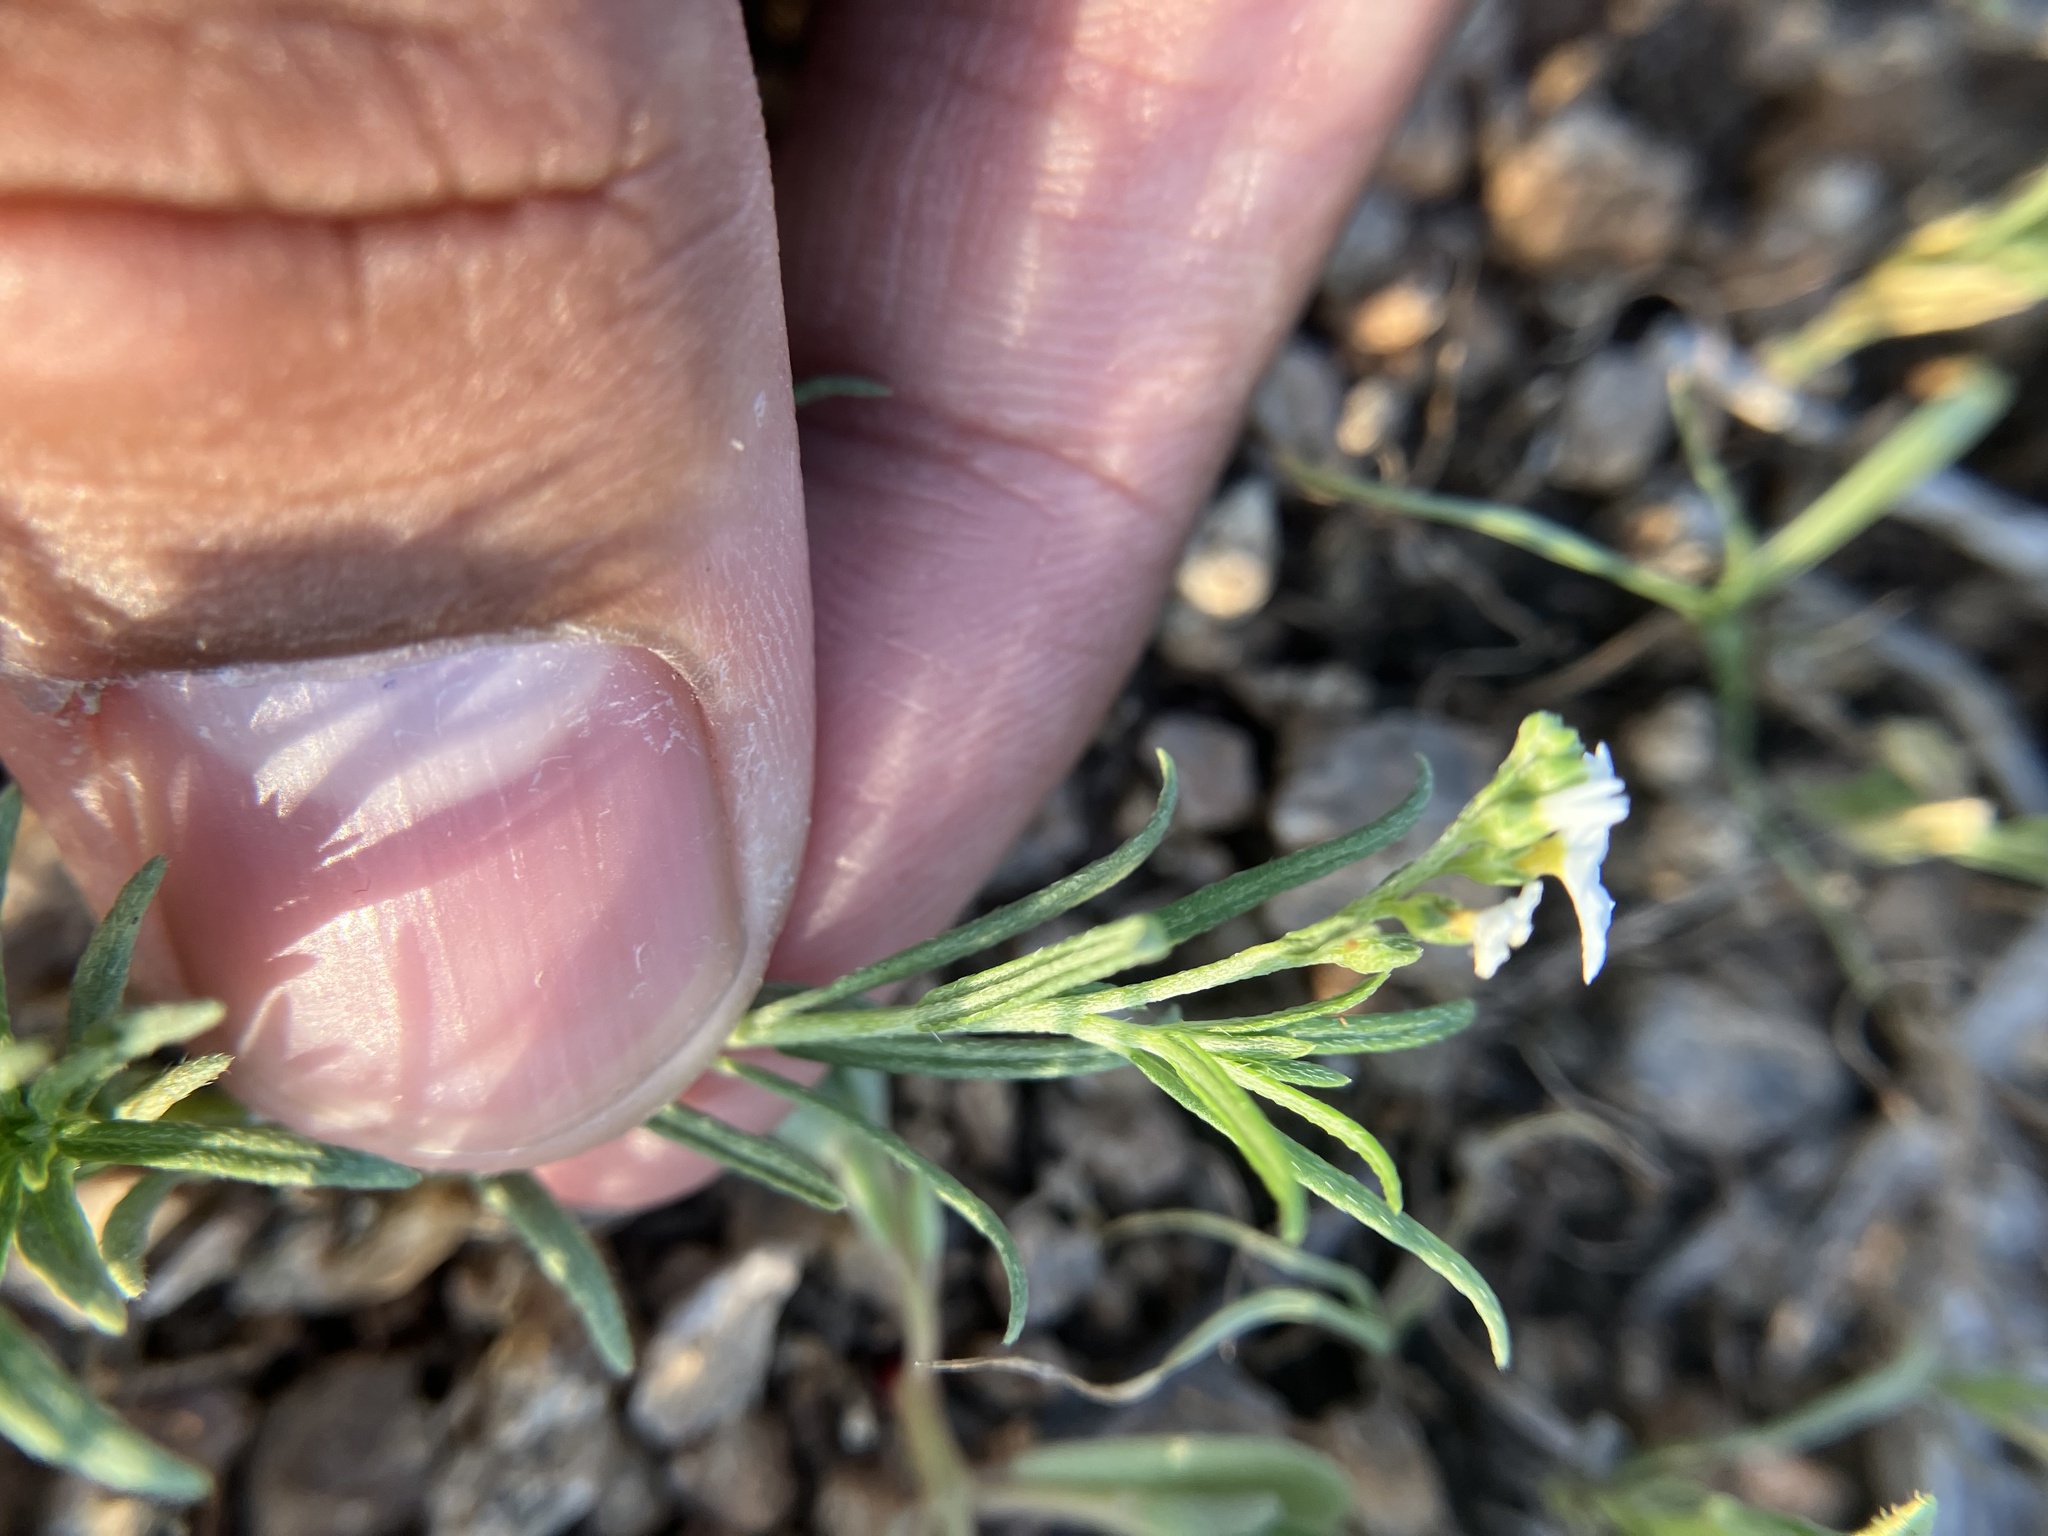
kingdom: Plantae
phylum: Tracheophyta
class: Magnoliopsida
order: Boraginales
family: Heliotropiaceae
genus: Euploca
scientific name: Euploca strigosa
